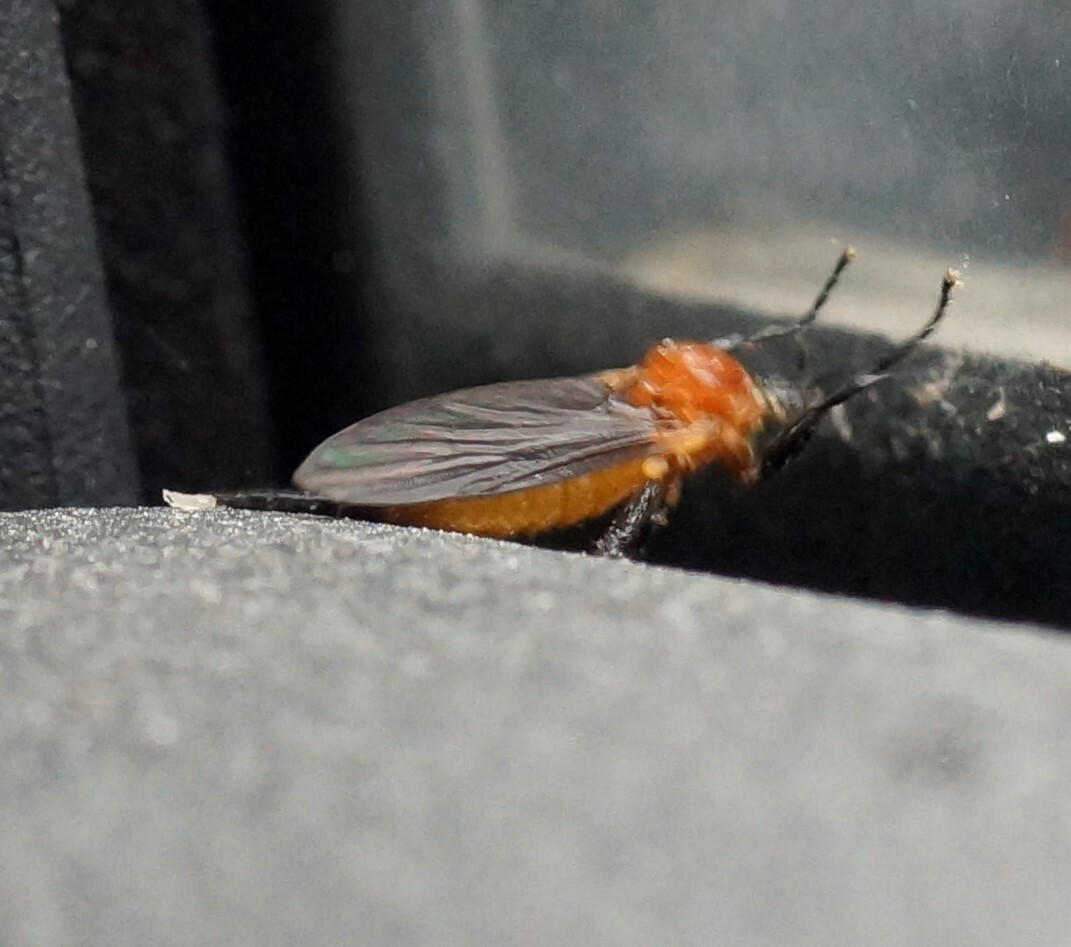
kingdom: Animalia
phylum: Arthropoda
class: Insecta
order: Diptera
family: Bibionidae
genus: Bibio
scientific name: Bibio imitator
